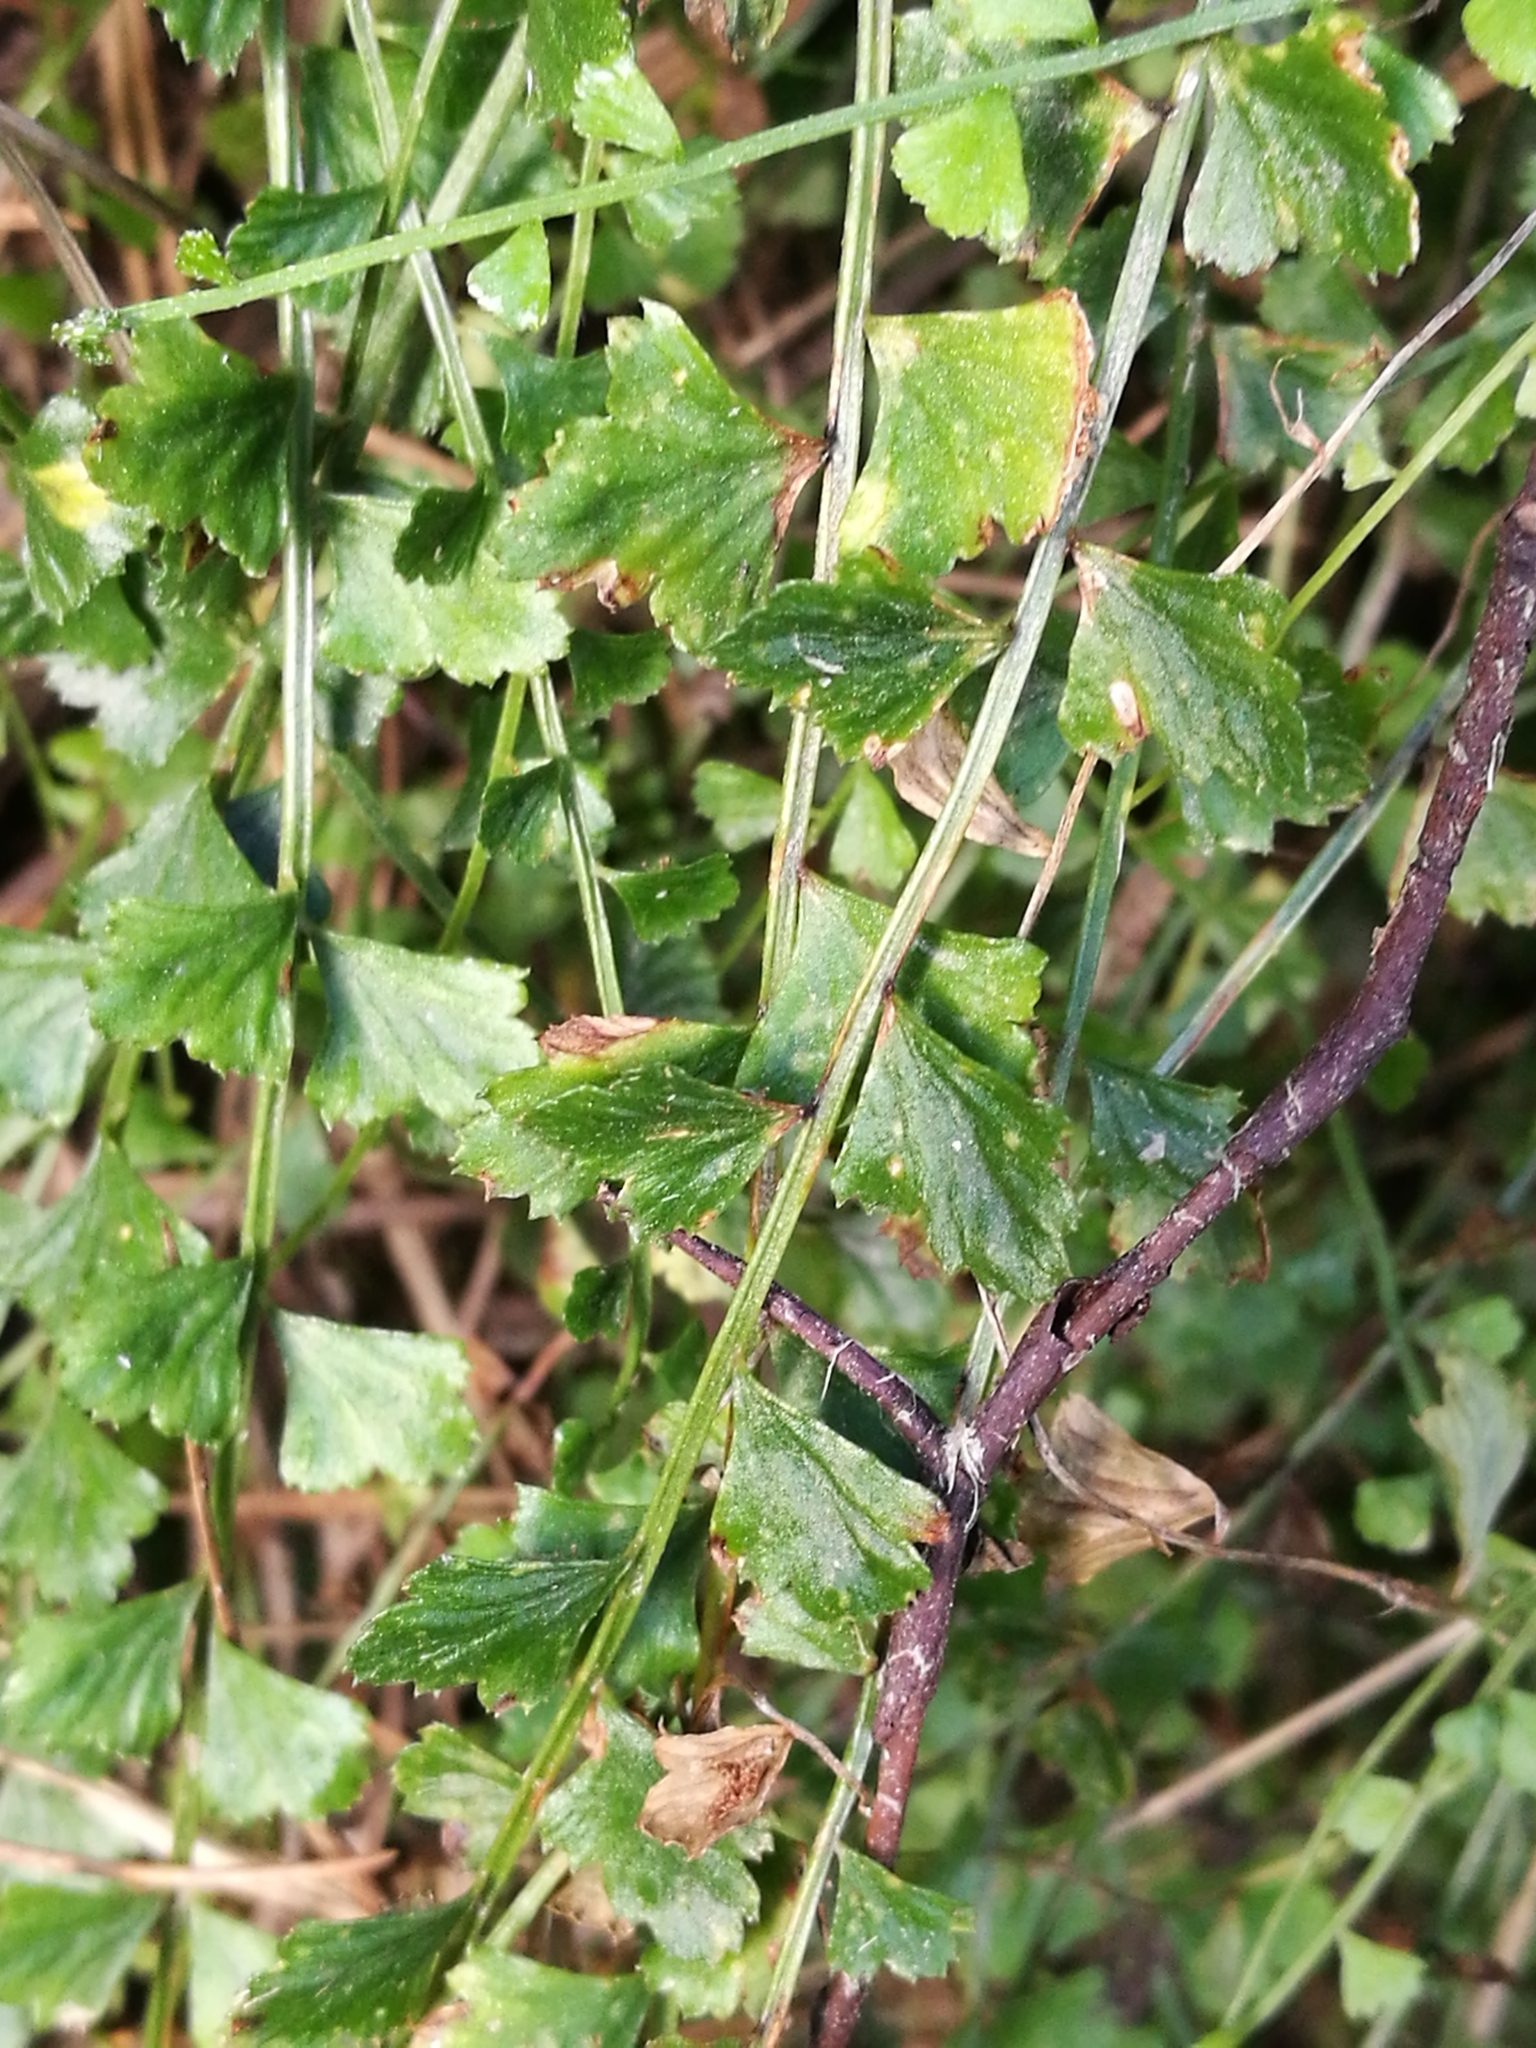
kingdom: Plantae
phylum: Tracheophyta
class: Polypodiopsida
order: Polypodiales
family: Aspleniaceae
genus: Asplenium
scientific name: Asplenium flabellifolium
